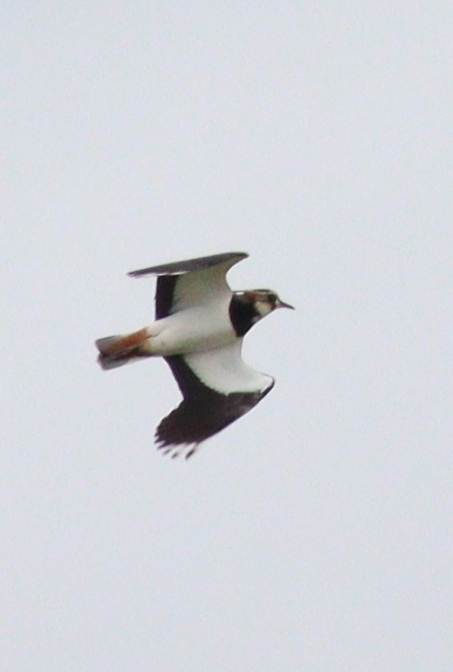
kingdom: Animalia
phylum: Chordata
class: Aves
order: Charadriiformes
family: Charadriidae
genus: Vanellus
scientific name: Vanellus vanellus
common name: Northern lapwing
